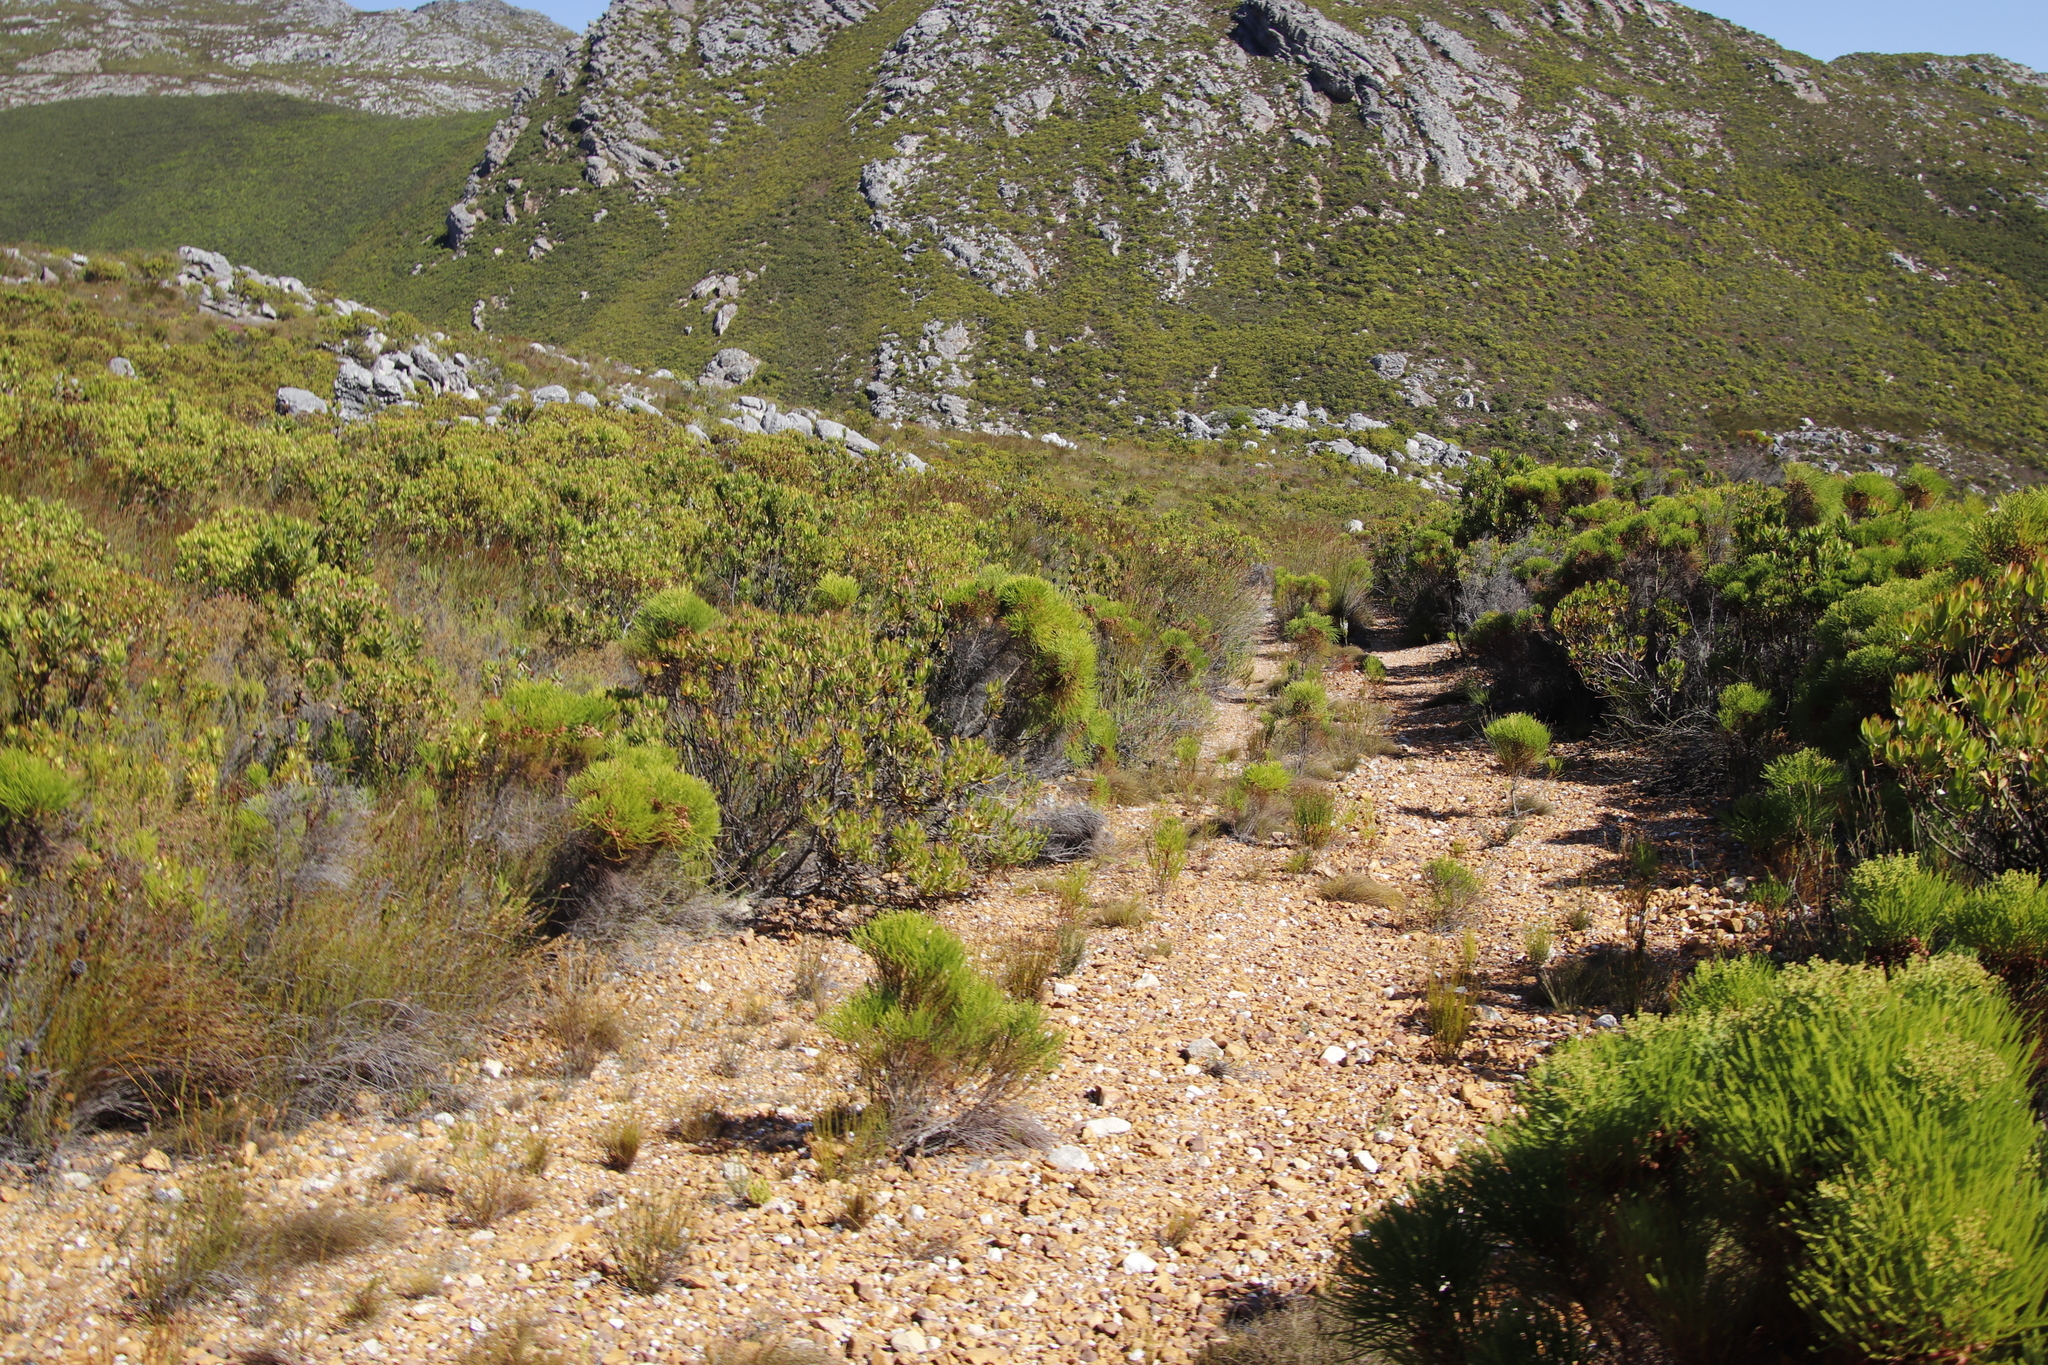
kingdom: Plantae
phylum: Tracheophyta
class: Magnoliopsida
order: Proteales
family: Proteaceae
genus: Leucadendron
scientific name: Leucadendron laureolum
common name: Golden sunshinebush
